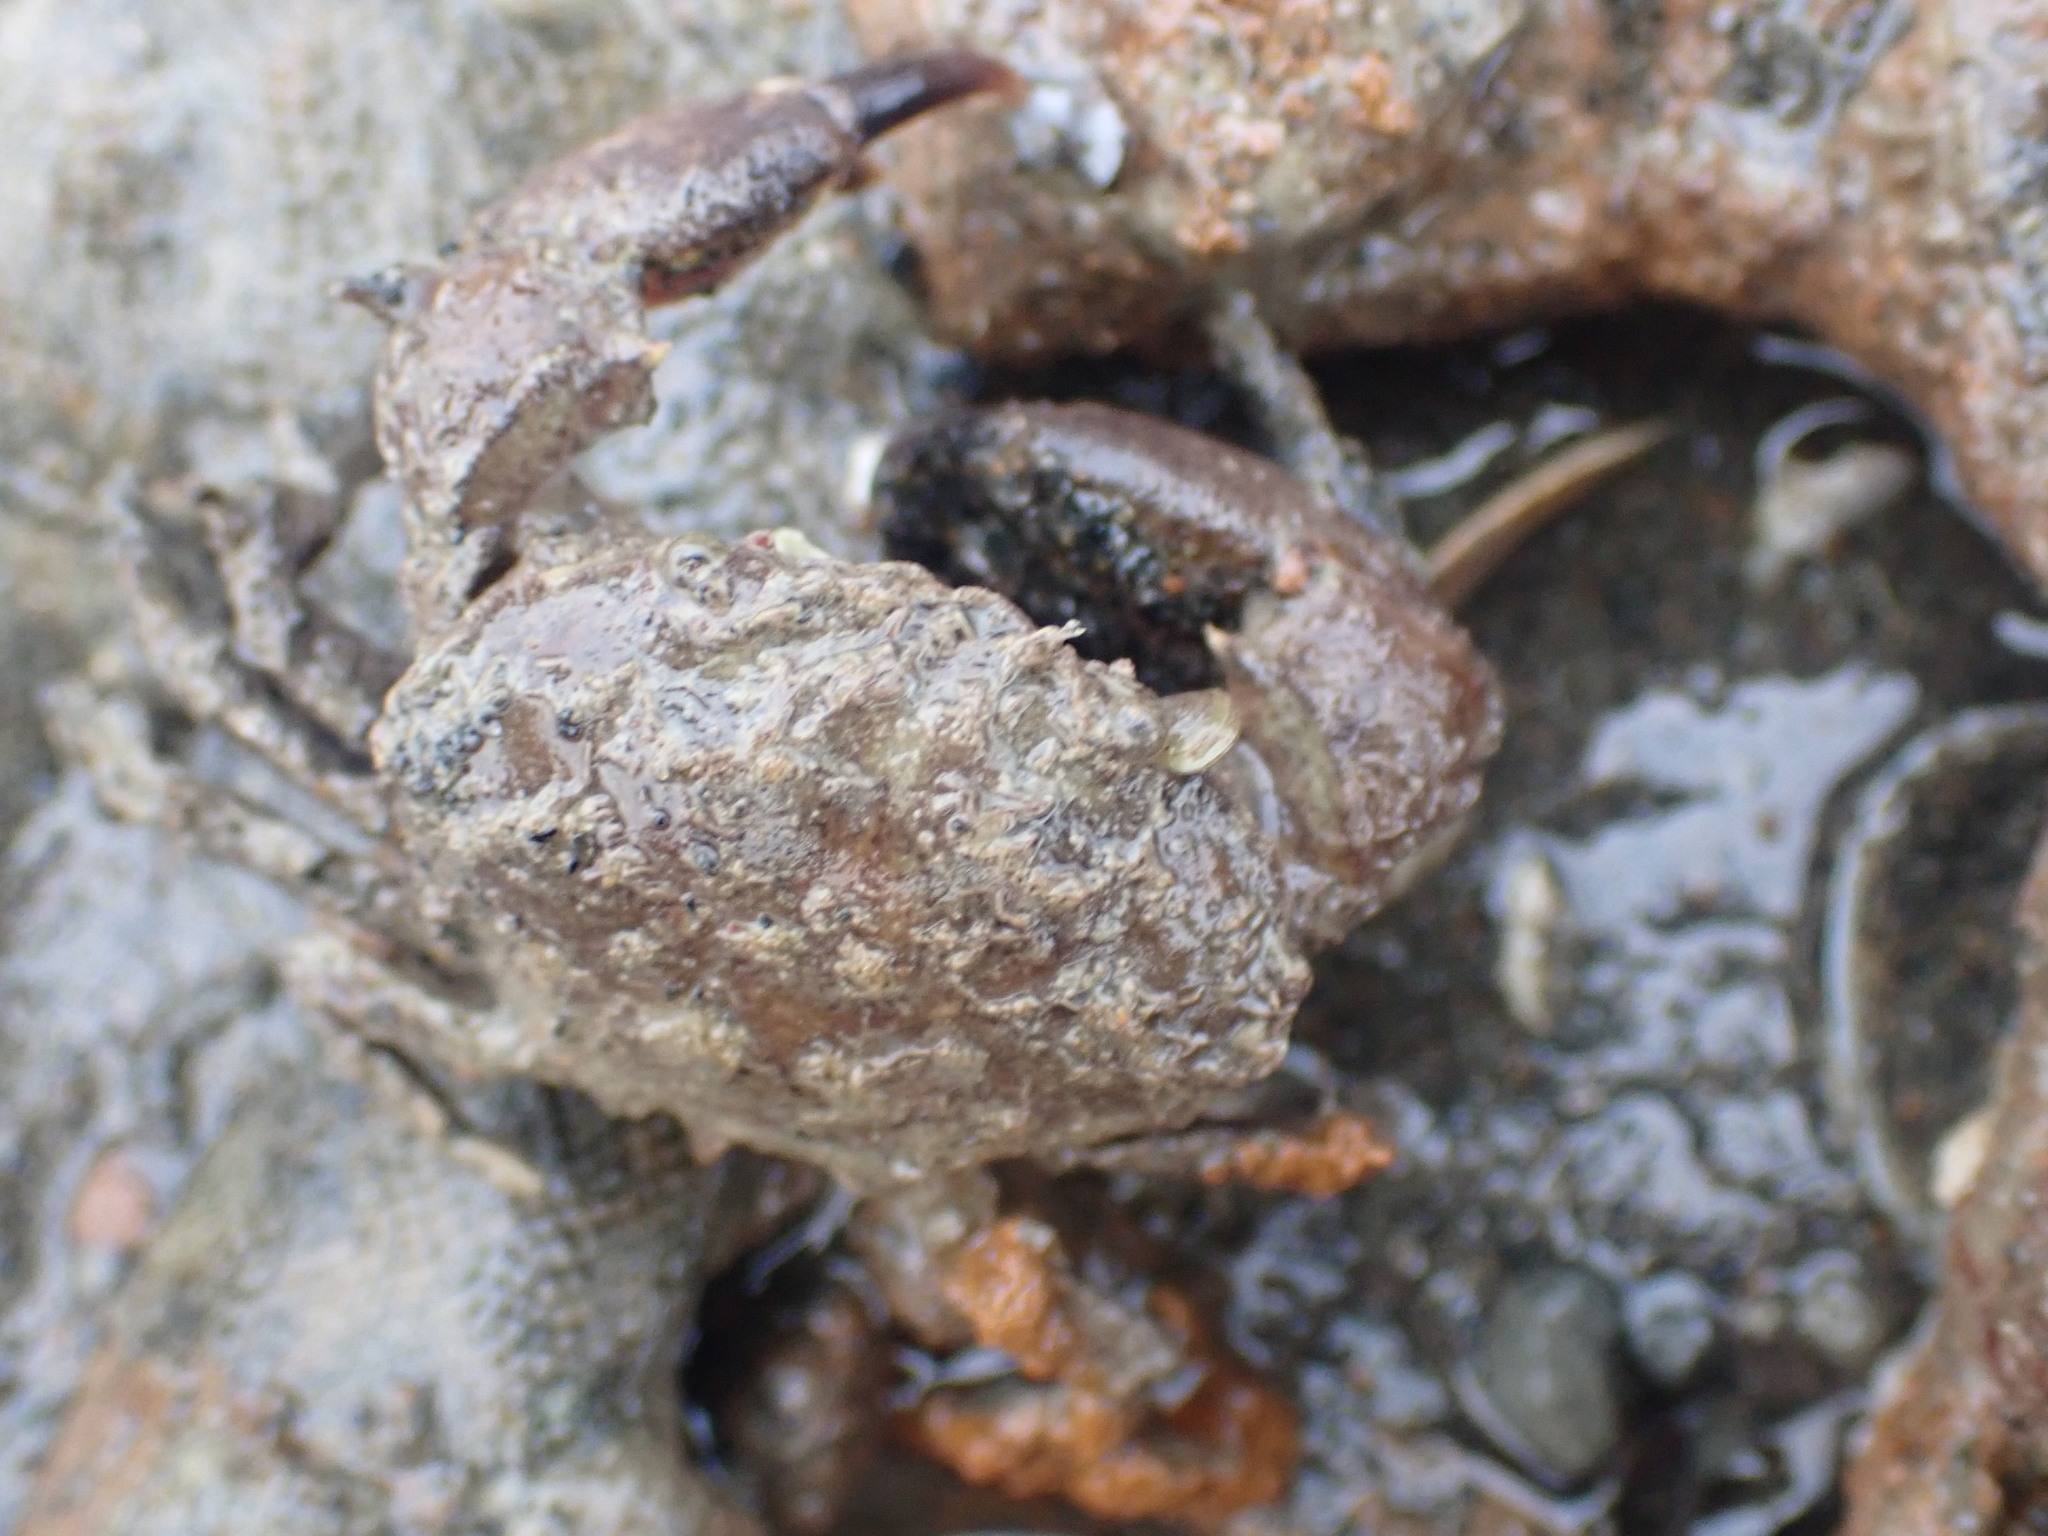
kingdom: Animalia
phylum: Arthropoda
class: Malacostraca
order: Decapoda
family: Pilumnidae
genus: Pilumnopeus
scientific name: Pilumnopeus serratifrons
